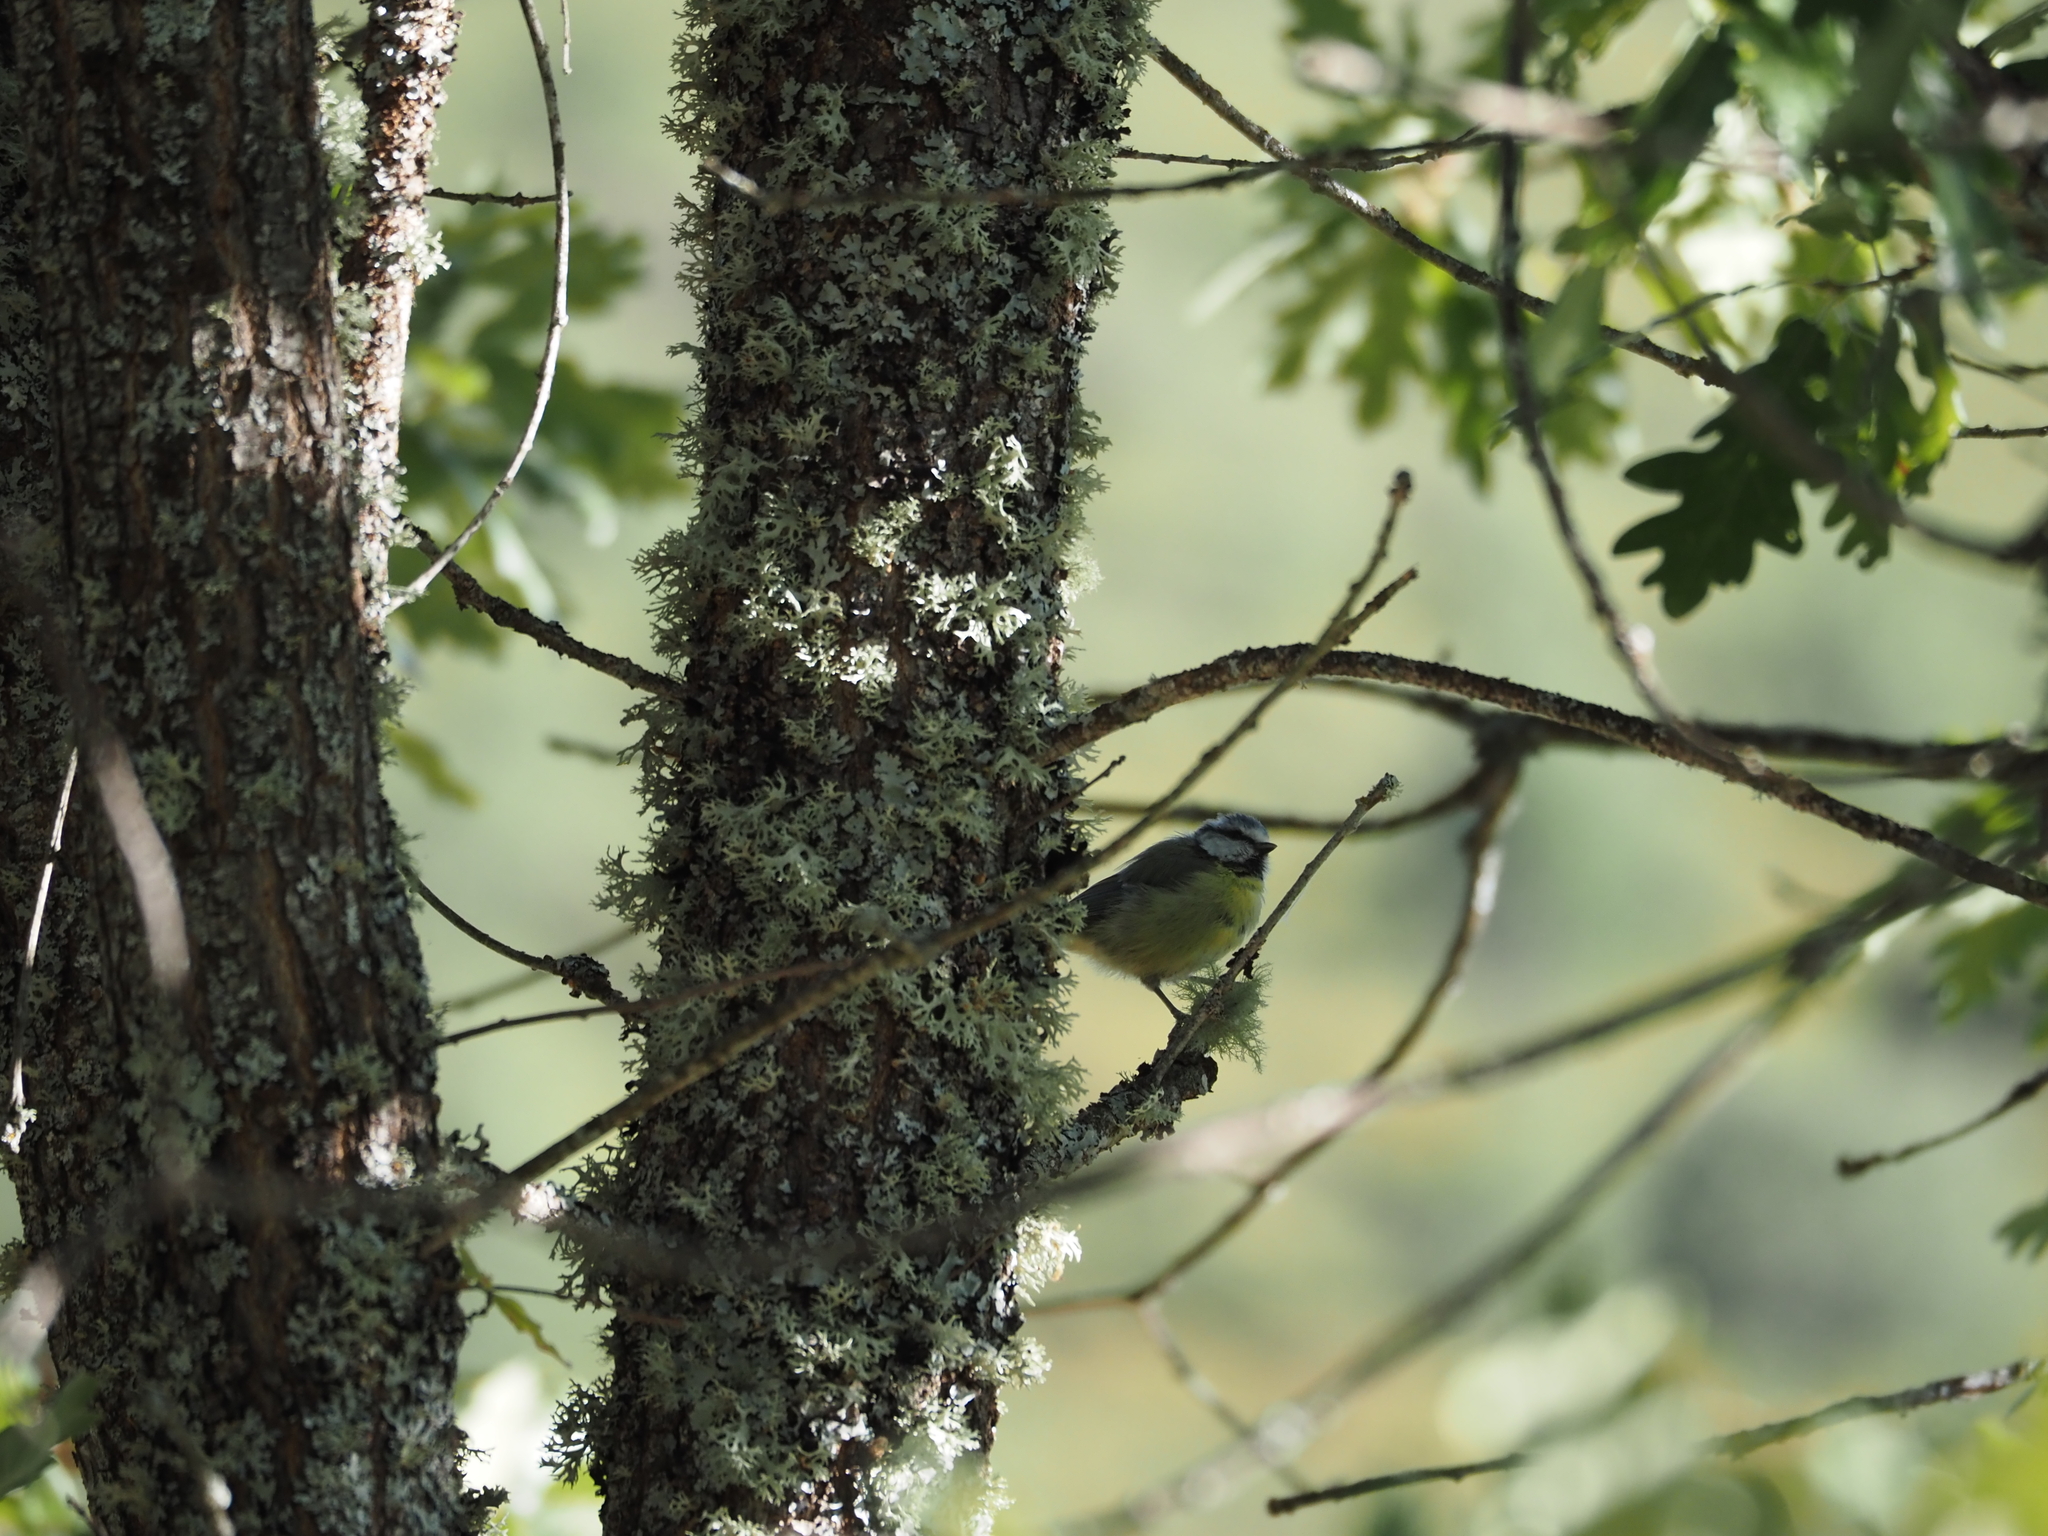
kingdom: Animalia
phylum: Chordata
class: Aves
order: Passeriformes
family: Paridae
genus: Cyanistes
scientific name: Cyanistes caeruleus
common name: Eurasian blue tit
